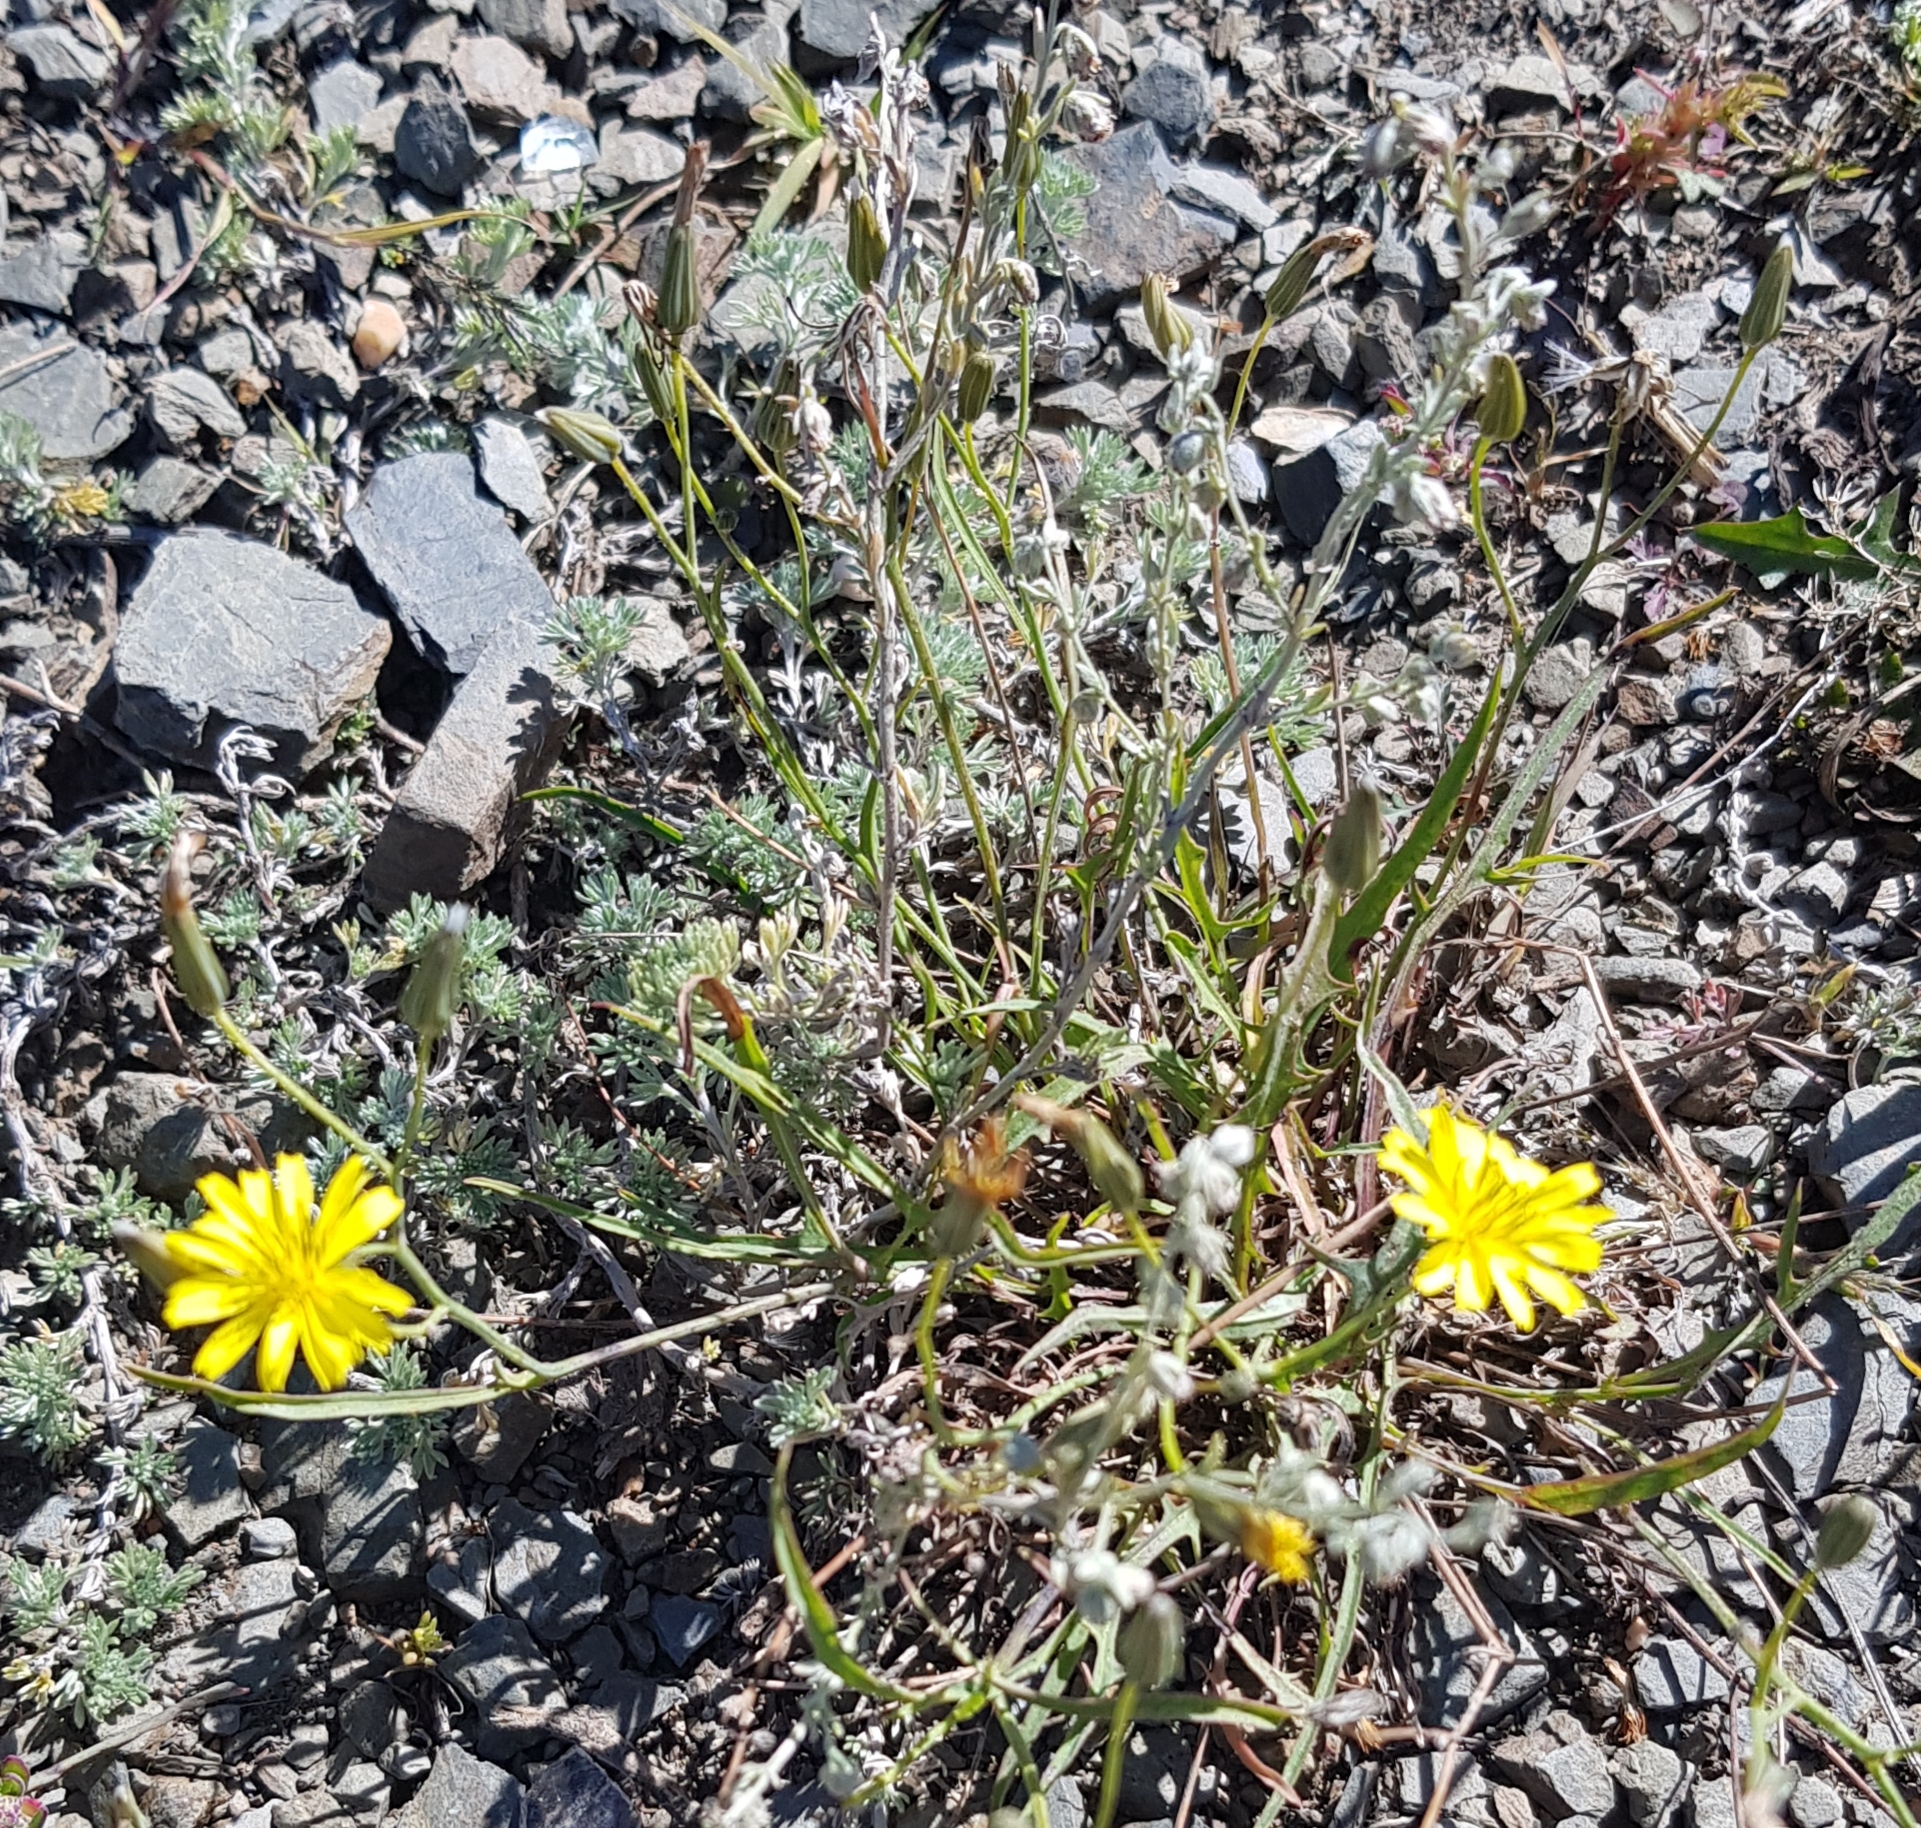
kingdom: Plantae
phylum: Tracheophyta
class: Magnoliopsida
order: Asterales
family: Asteraceae
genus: Crepidiastrum
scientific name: Crepidiastrum tenuifolium
